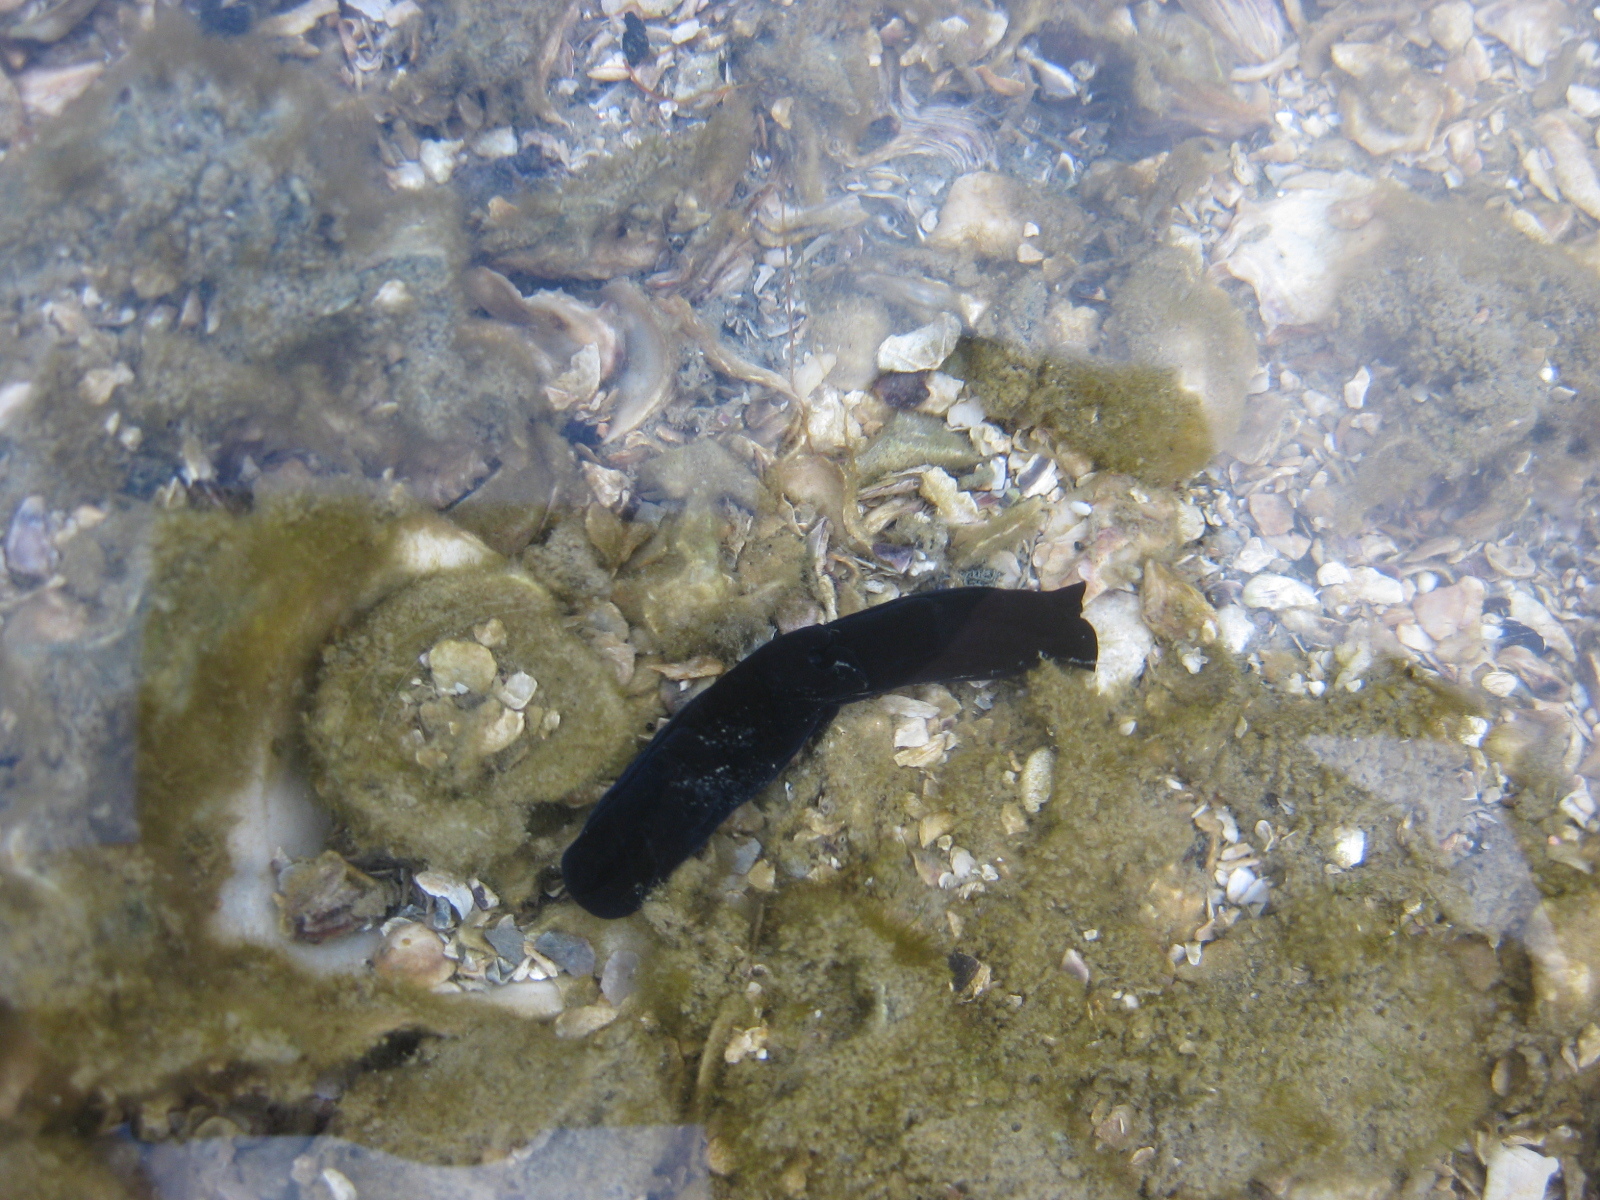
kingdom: Animalia
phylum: Mollusca
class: Gastropoda
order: Cephalaspidea
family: Aglajidae
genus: Melanochlamys
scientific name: Melanochlamys cylindrica
